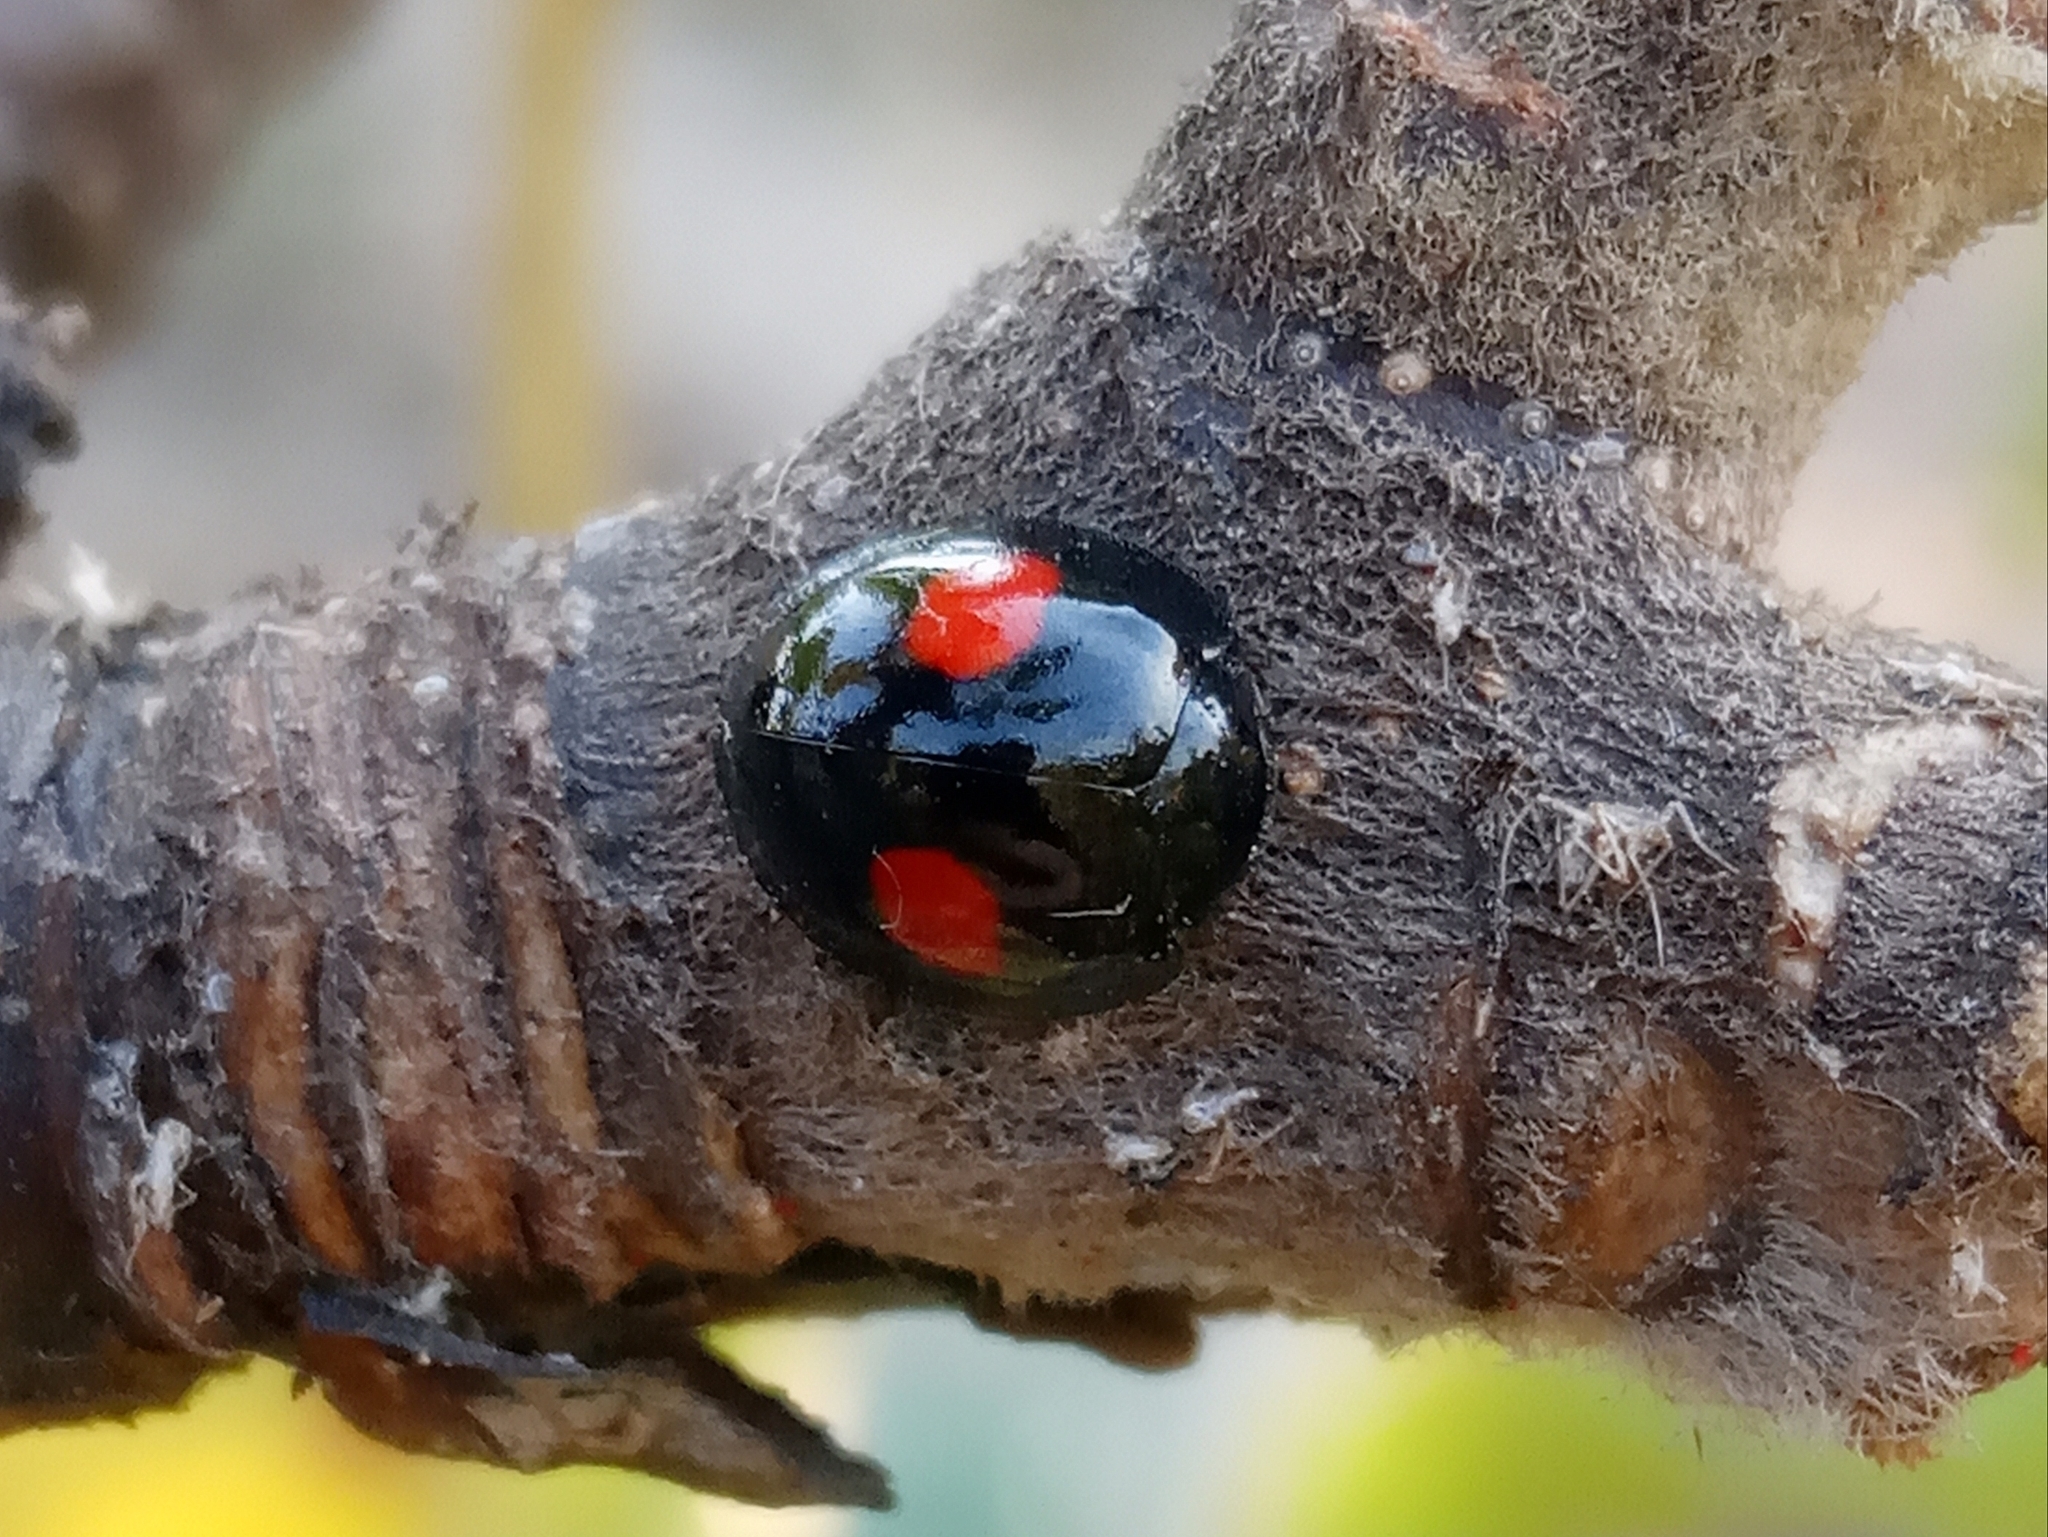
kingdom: Animalia
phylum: Arthropoda
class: Insecta
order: Coleoptera
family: Coccinellidae
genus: Chilocorus
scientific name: Chilocorus renipustulatus
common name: Kidney-spot ladybird
